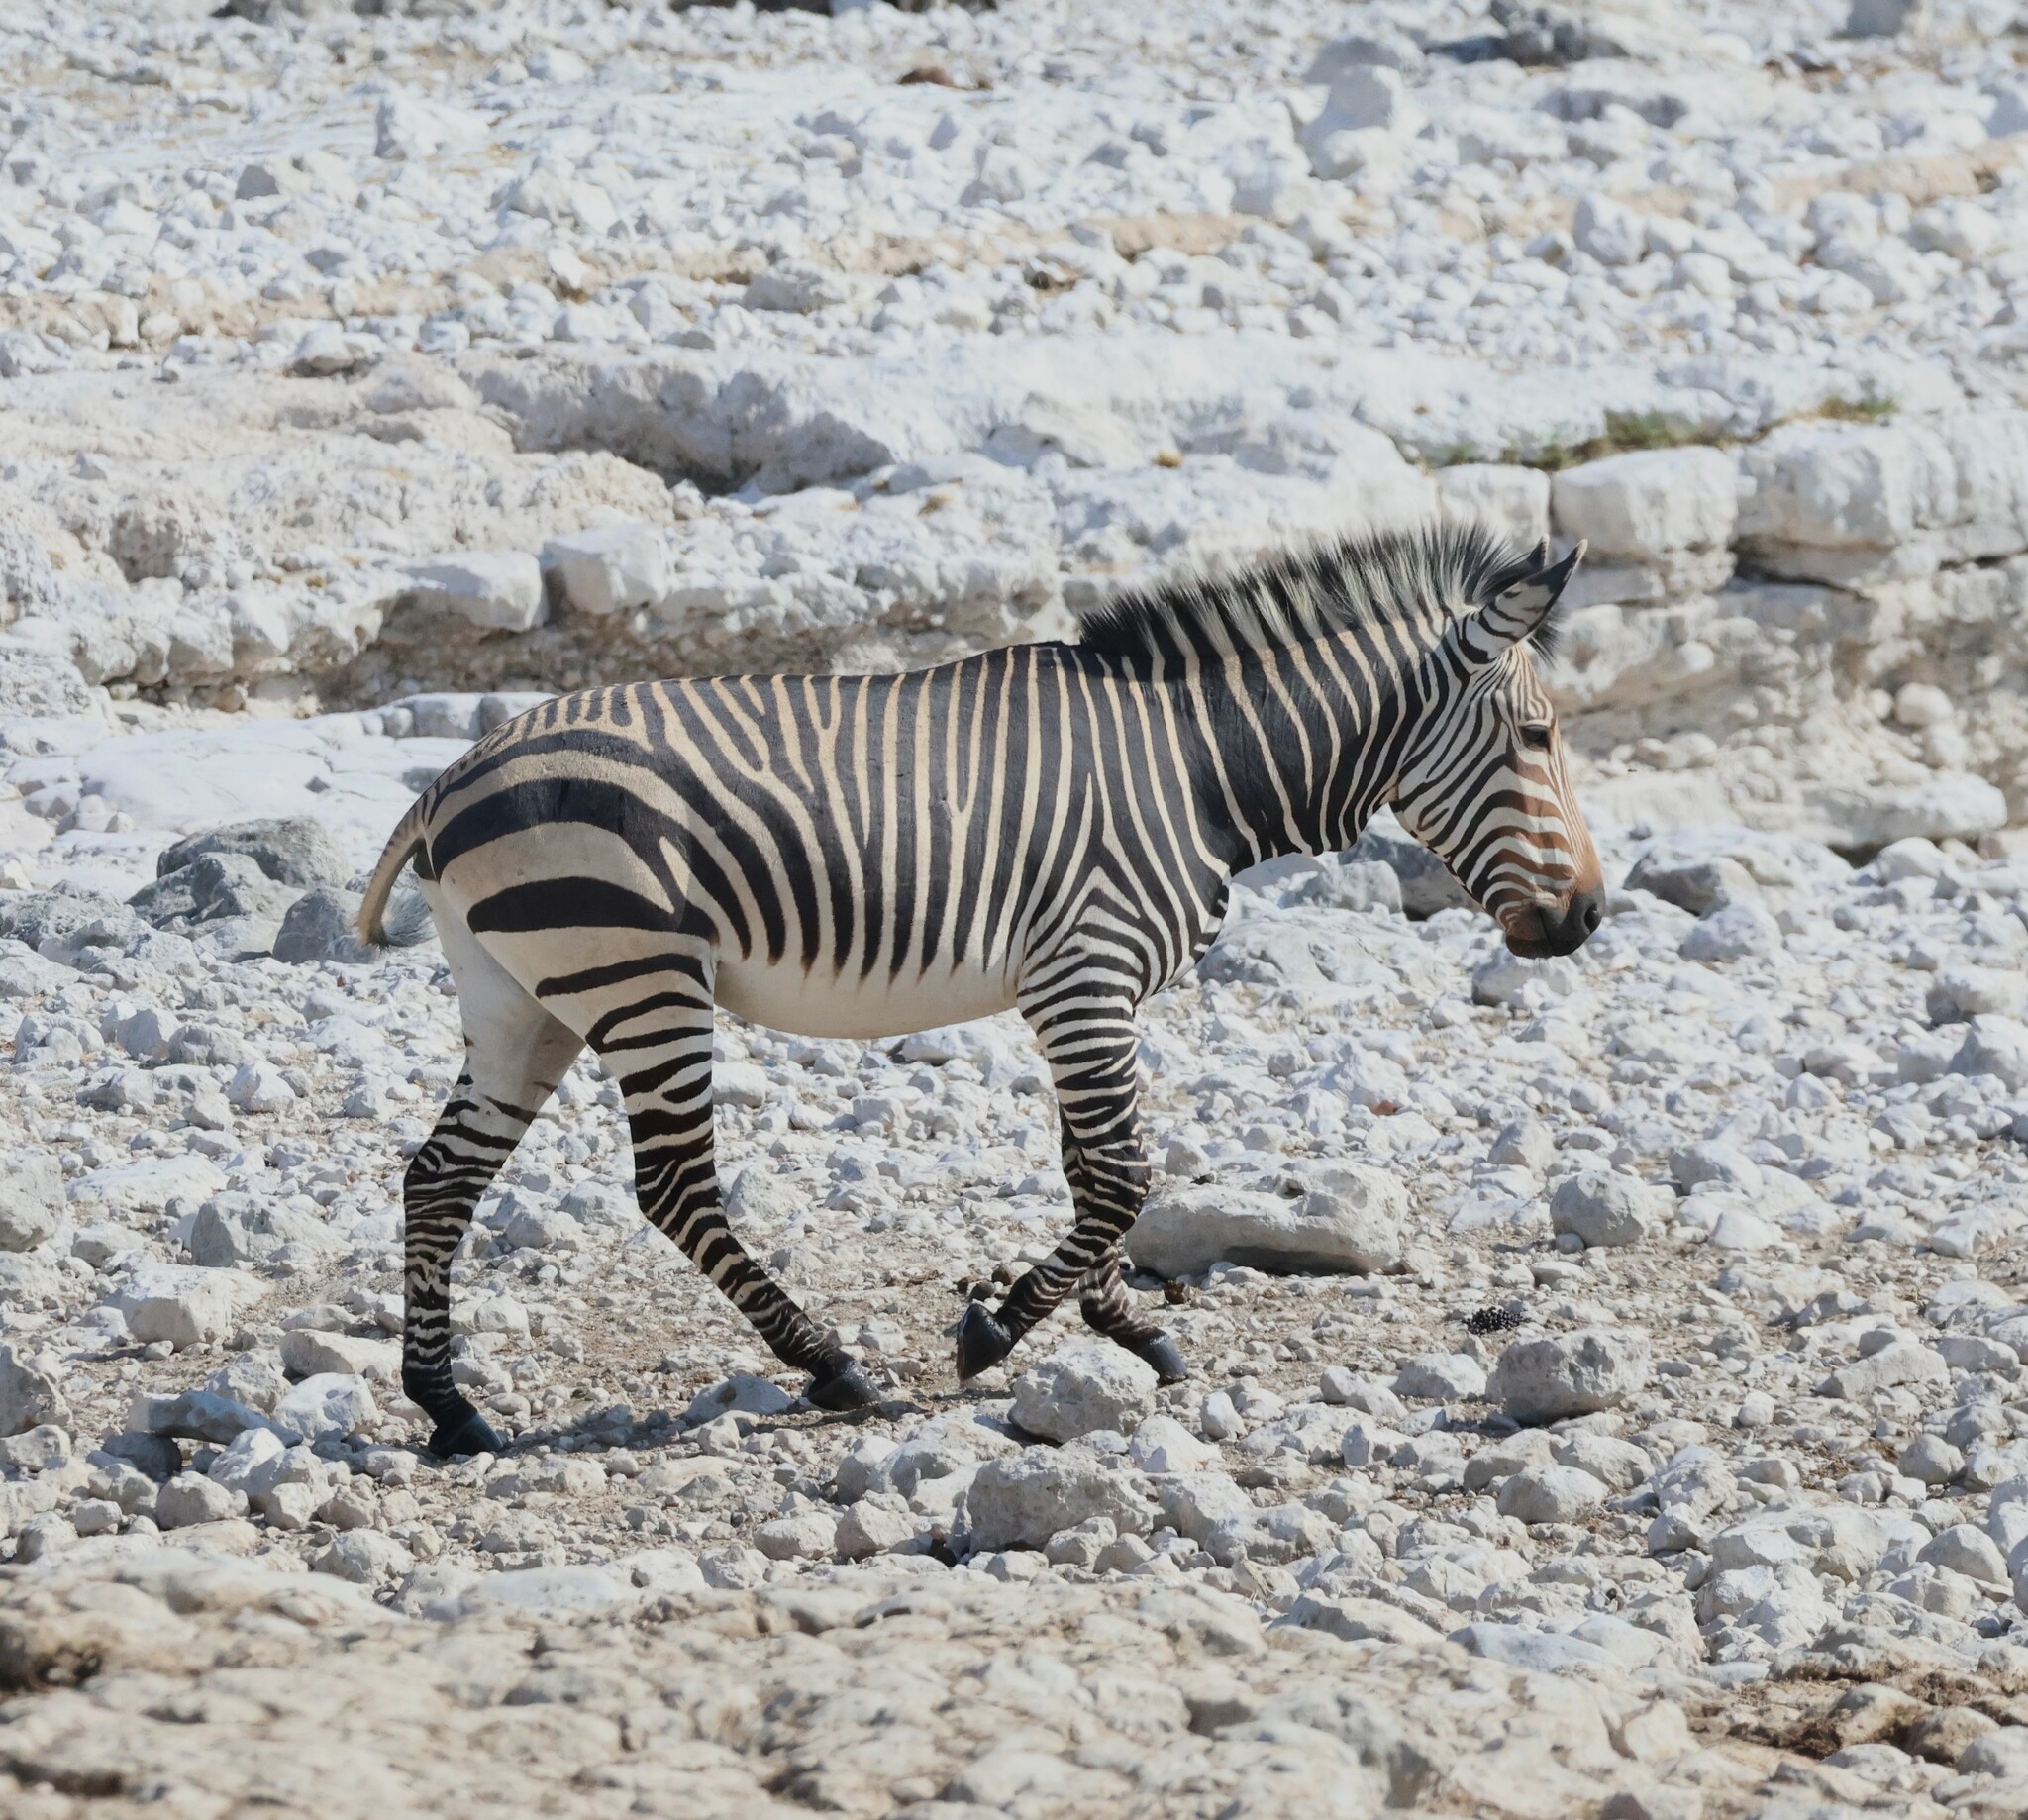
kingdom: Animalia
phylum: Chordata
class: Mammalia
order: Perissodactyla
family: Equidae
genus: Equus
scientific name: Equus hartmannae
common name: Hartmann's mountain zebra
